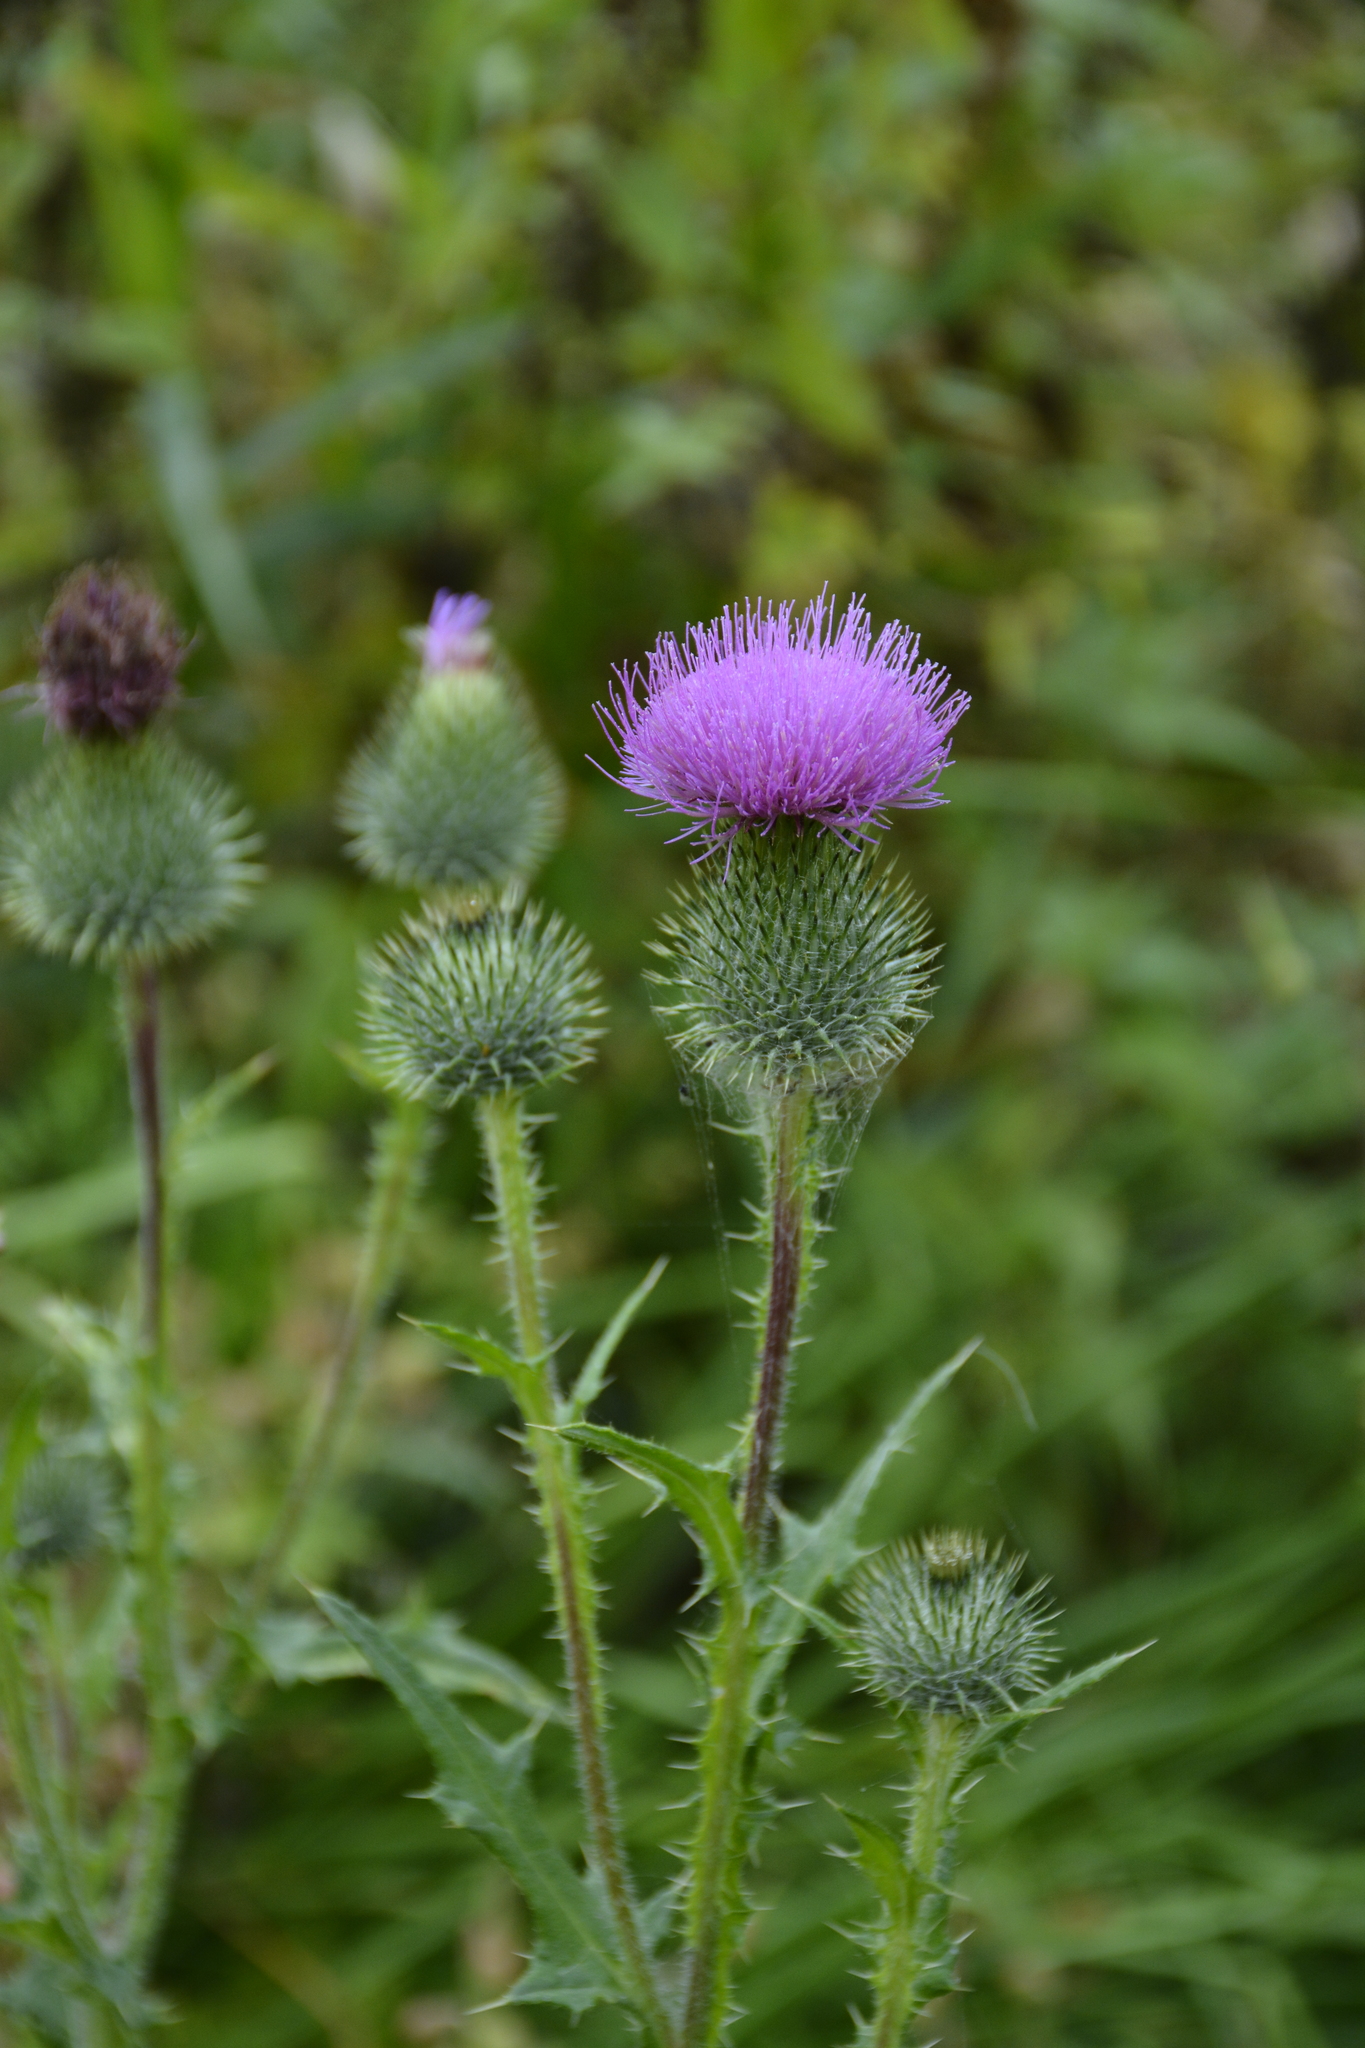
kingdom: Plantae
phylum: Tracheophyta
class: Magnoliopsida
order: Asterales
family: Asteraceae
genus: Cirsium
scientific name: Cirsium vulgare
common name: Bull thistle
